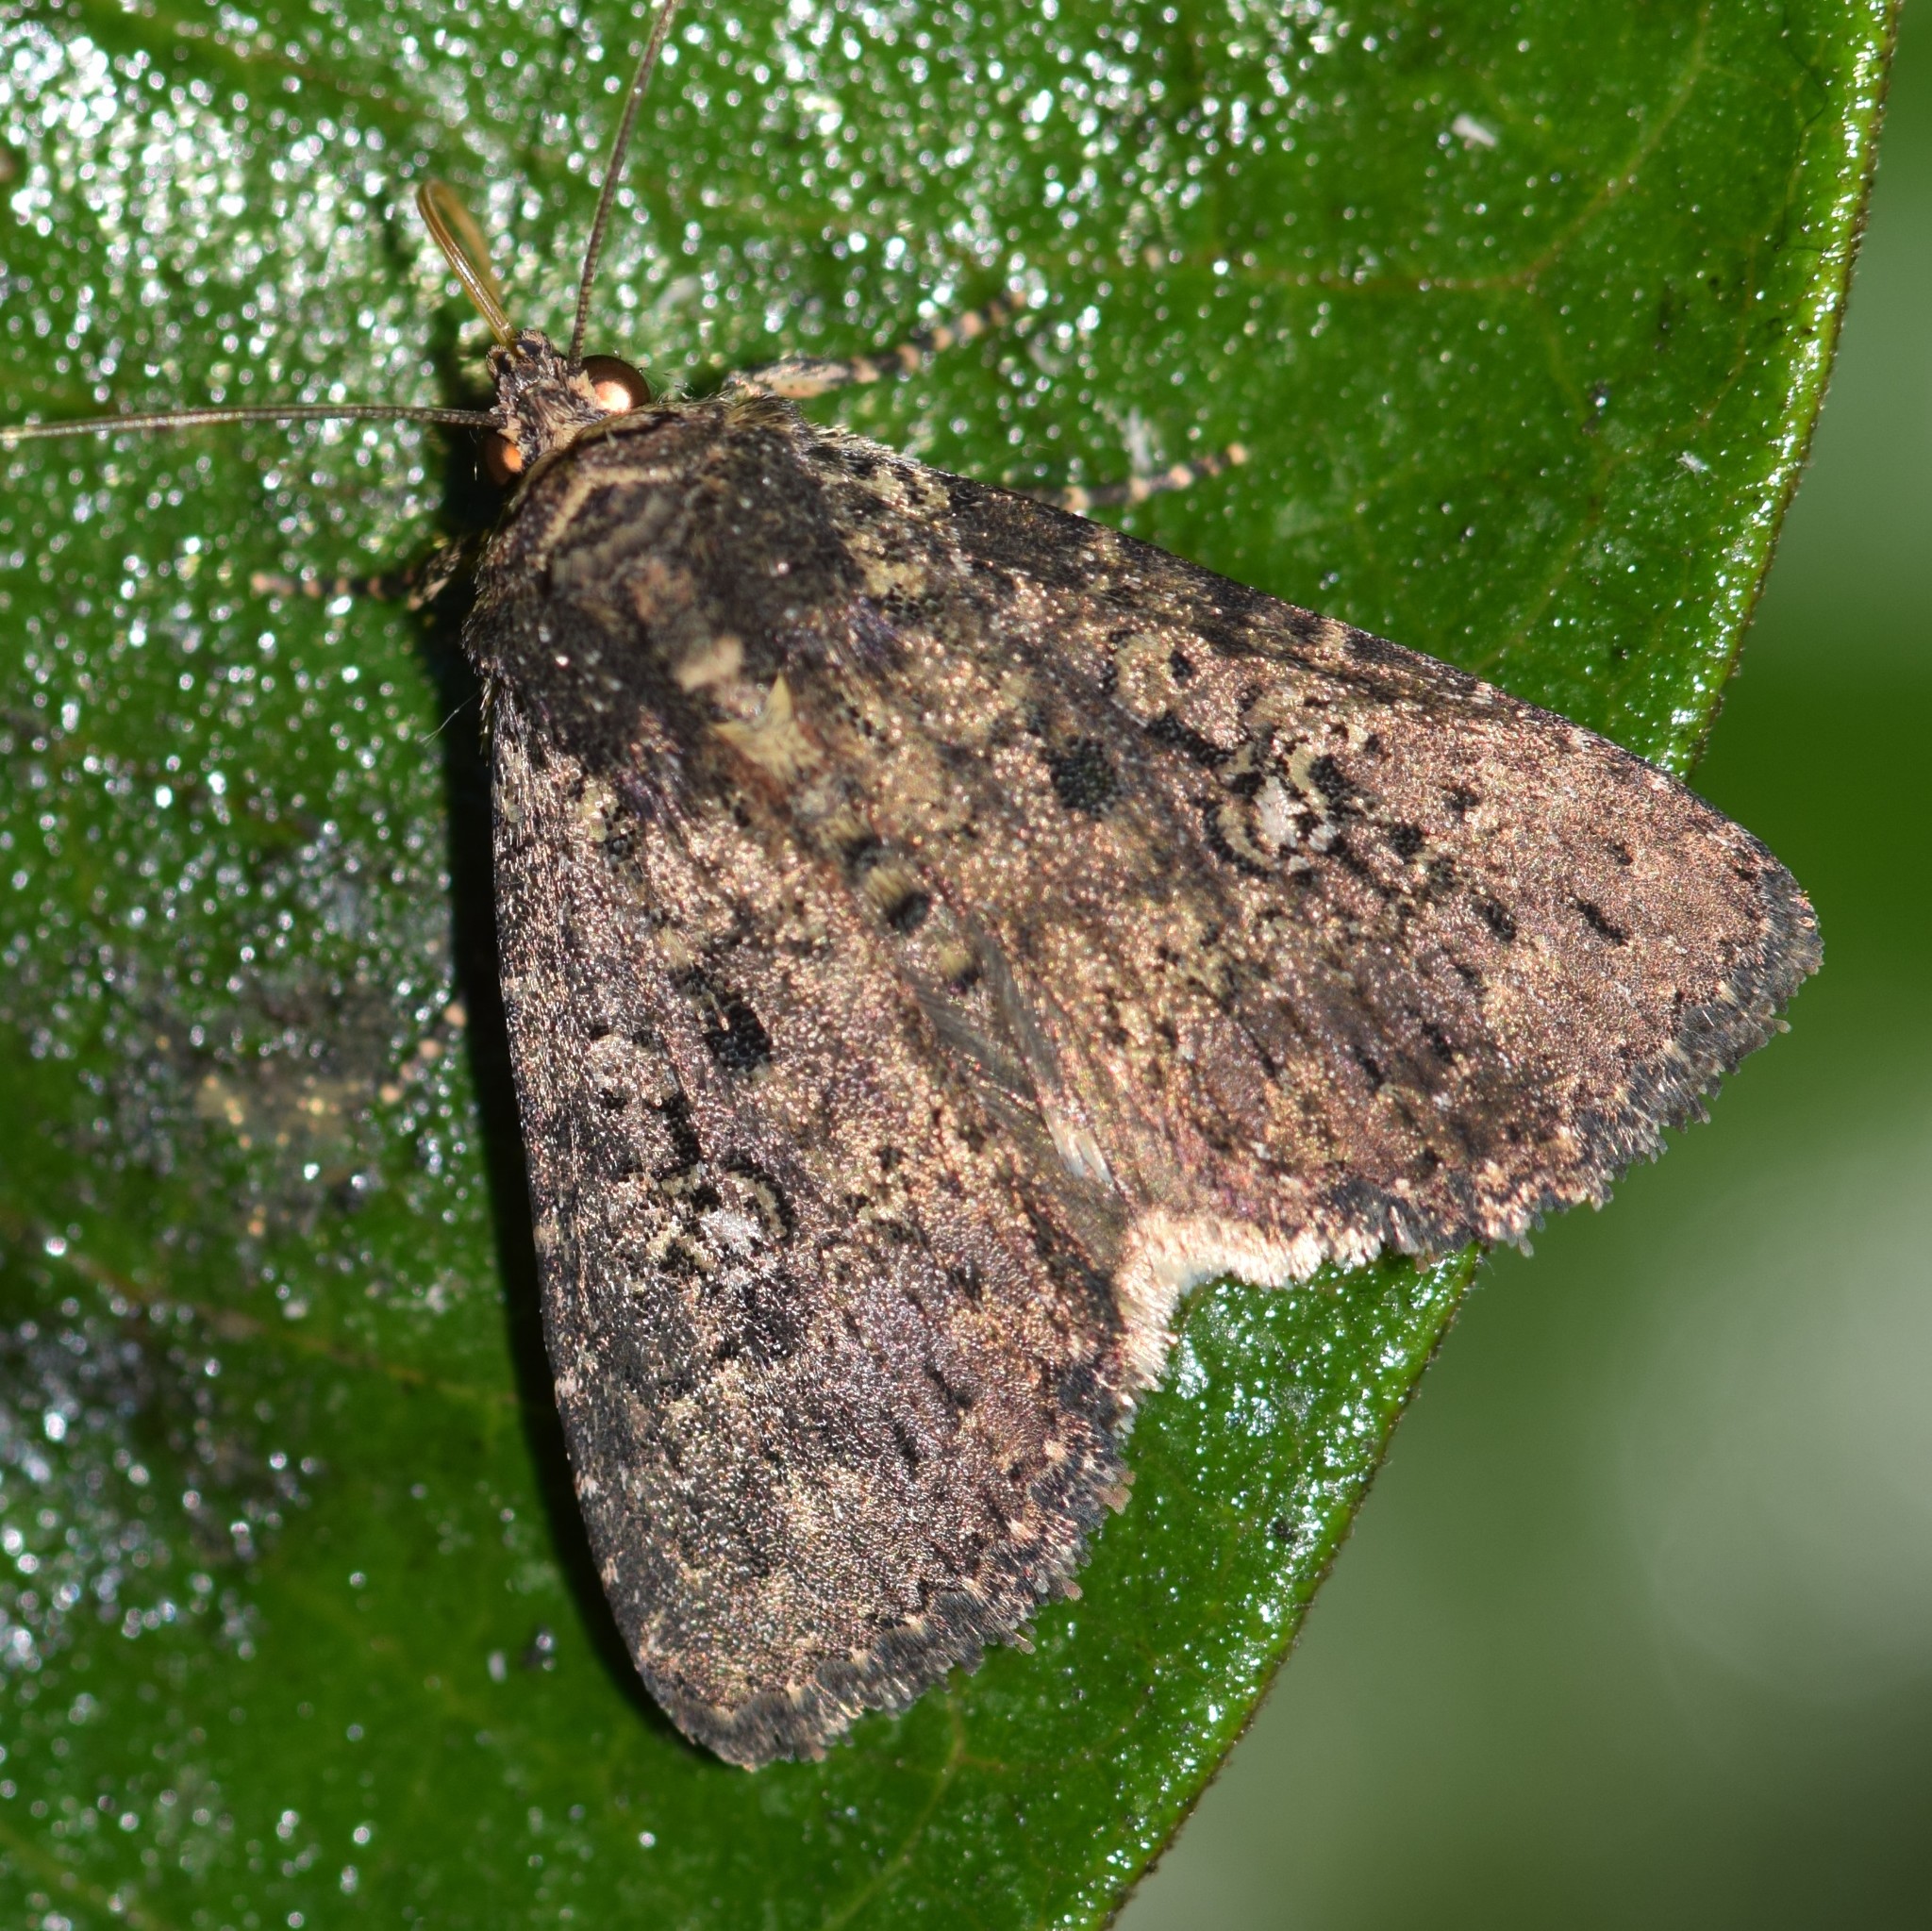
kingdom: Animalia
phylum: Arthropoda
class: Insecta
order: Lepidoptera
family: Noctuidae
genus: Condica
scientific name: Condica vecors
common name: Dusky groundling
